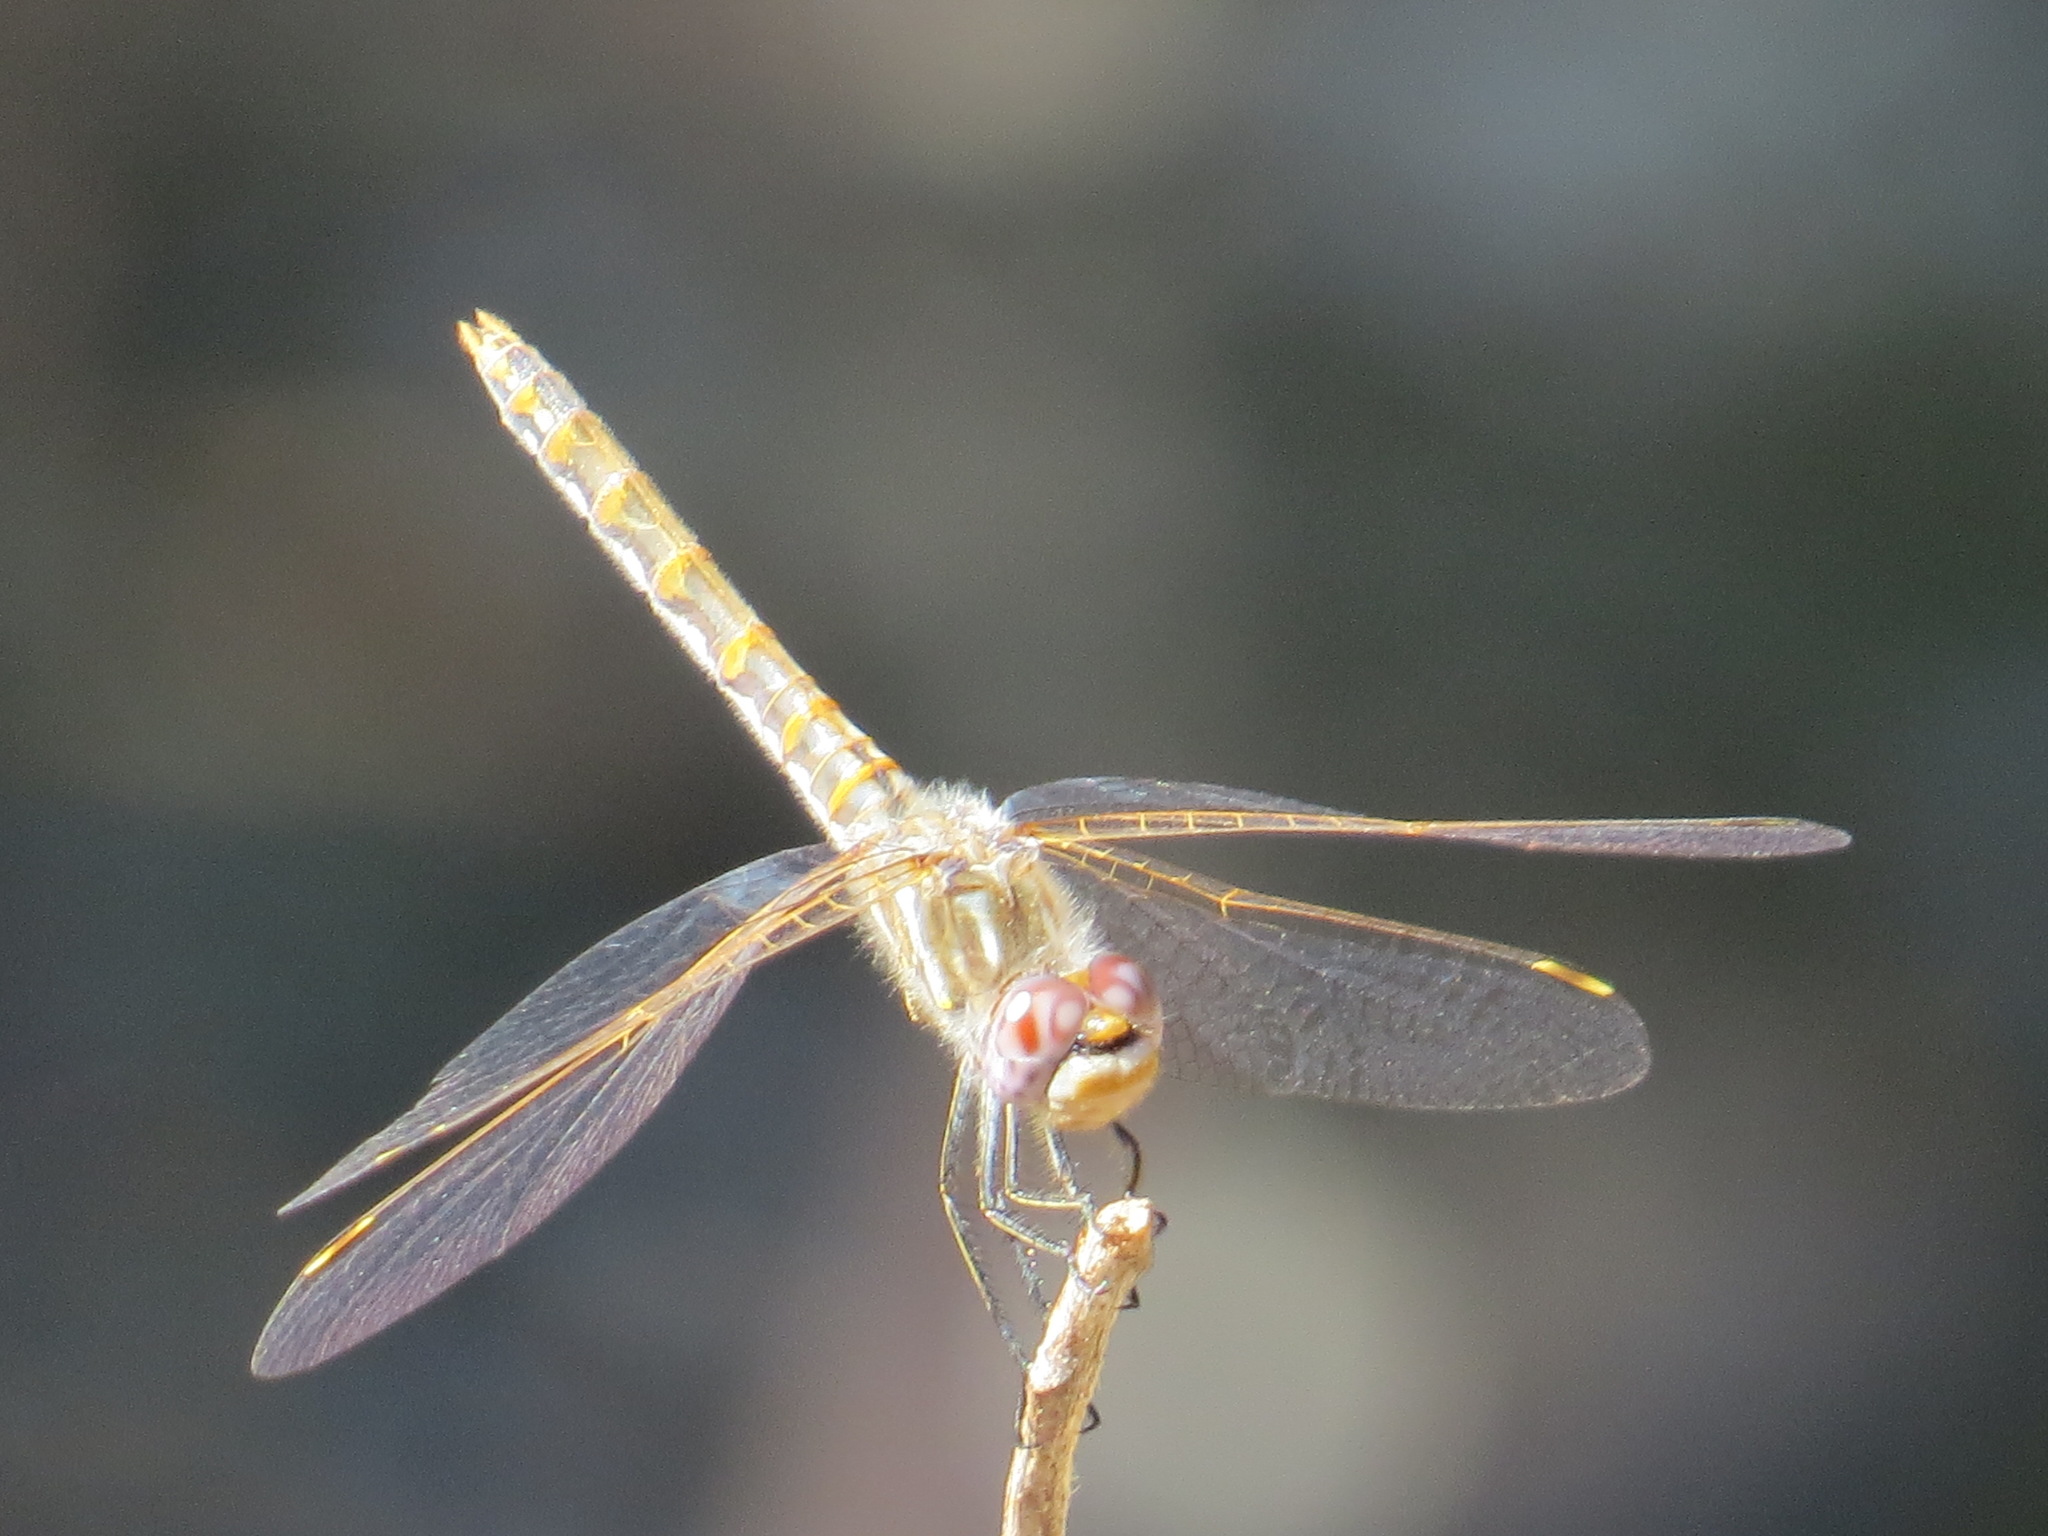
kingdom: Animalia
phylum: Arthropoda
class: Insecta
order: Odonata
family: Libellulidae
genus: Sympetrum
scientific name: Sympetrum corruptum
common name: Variegated meadowhawk
